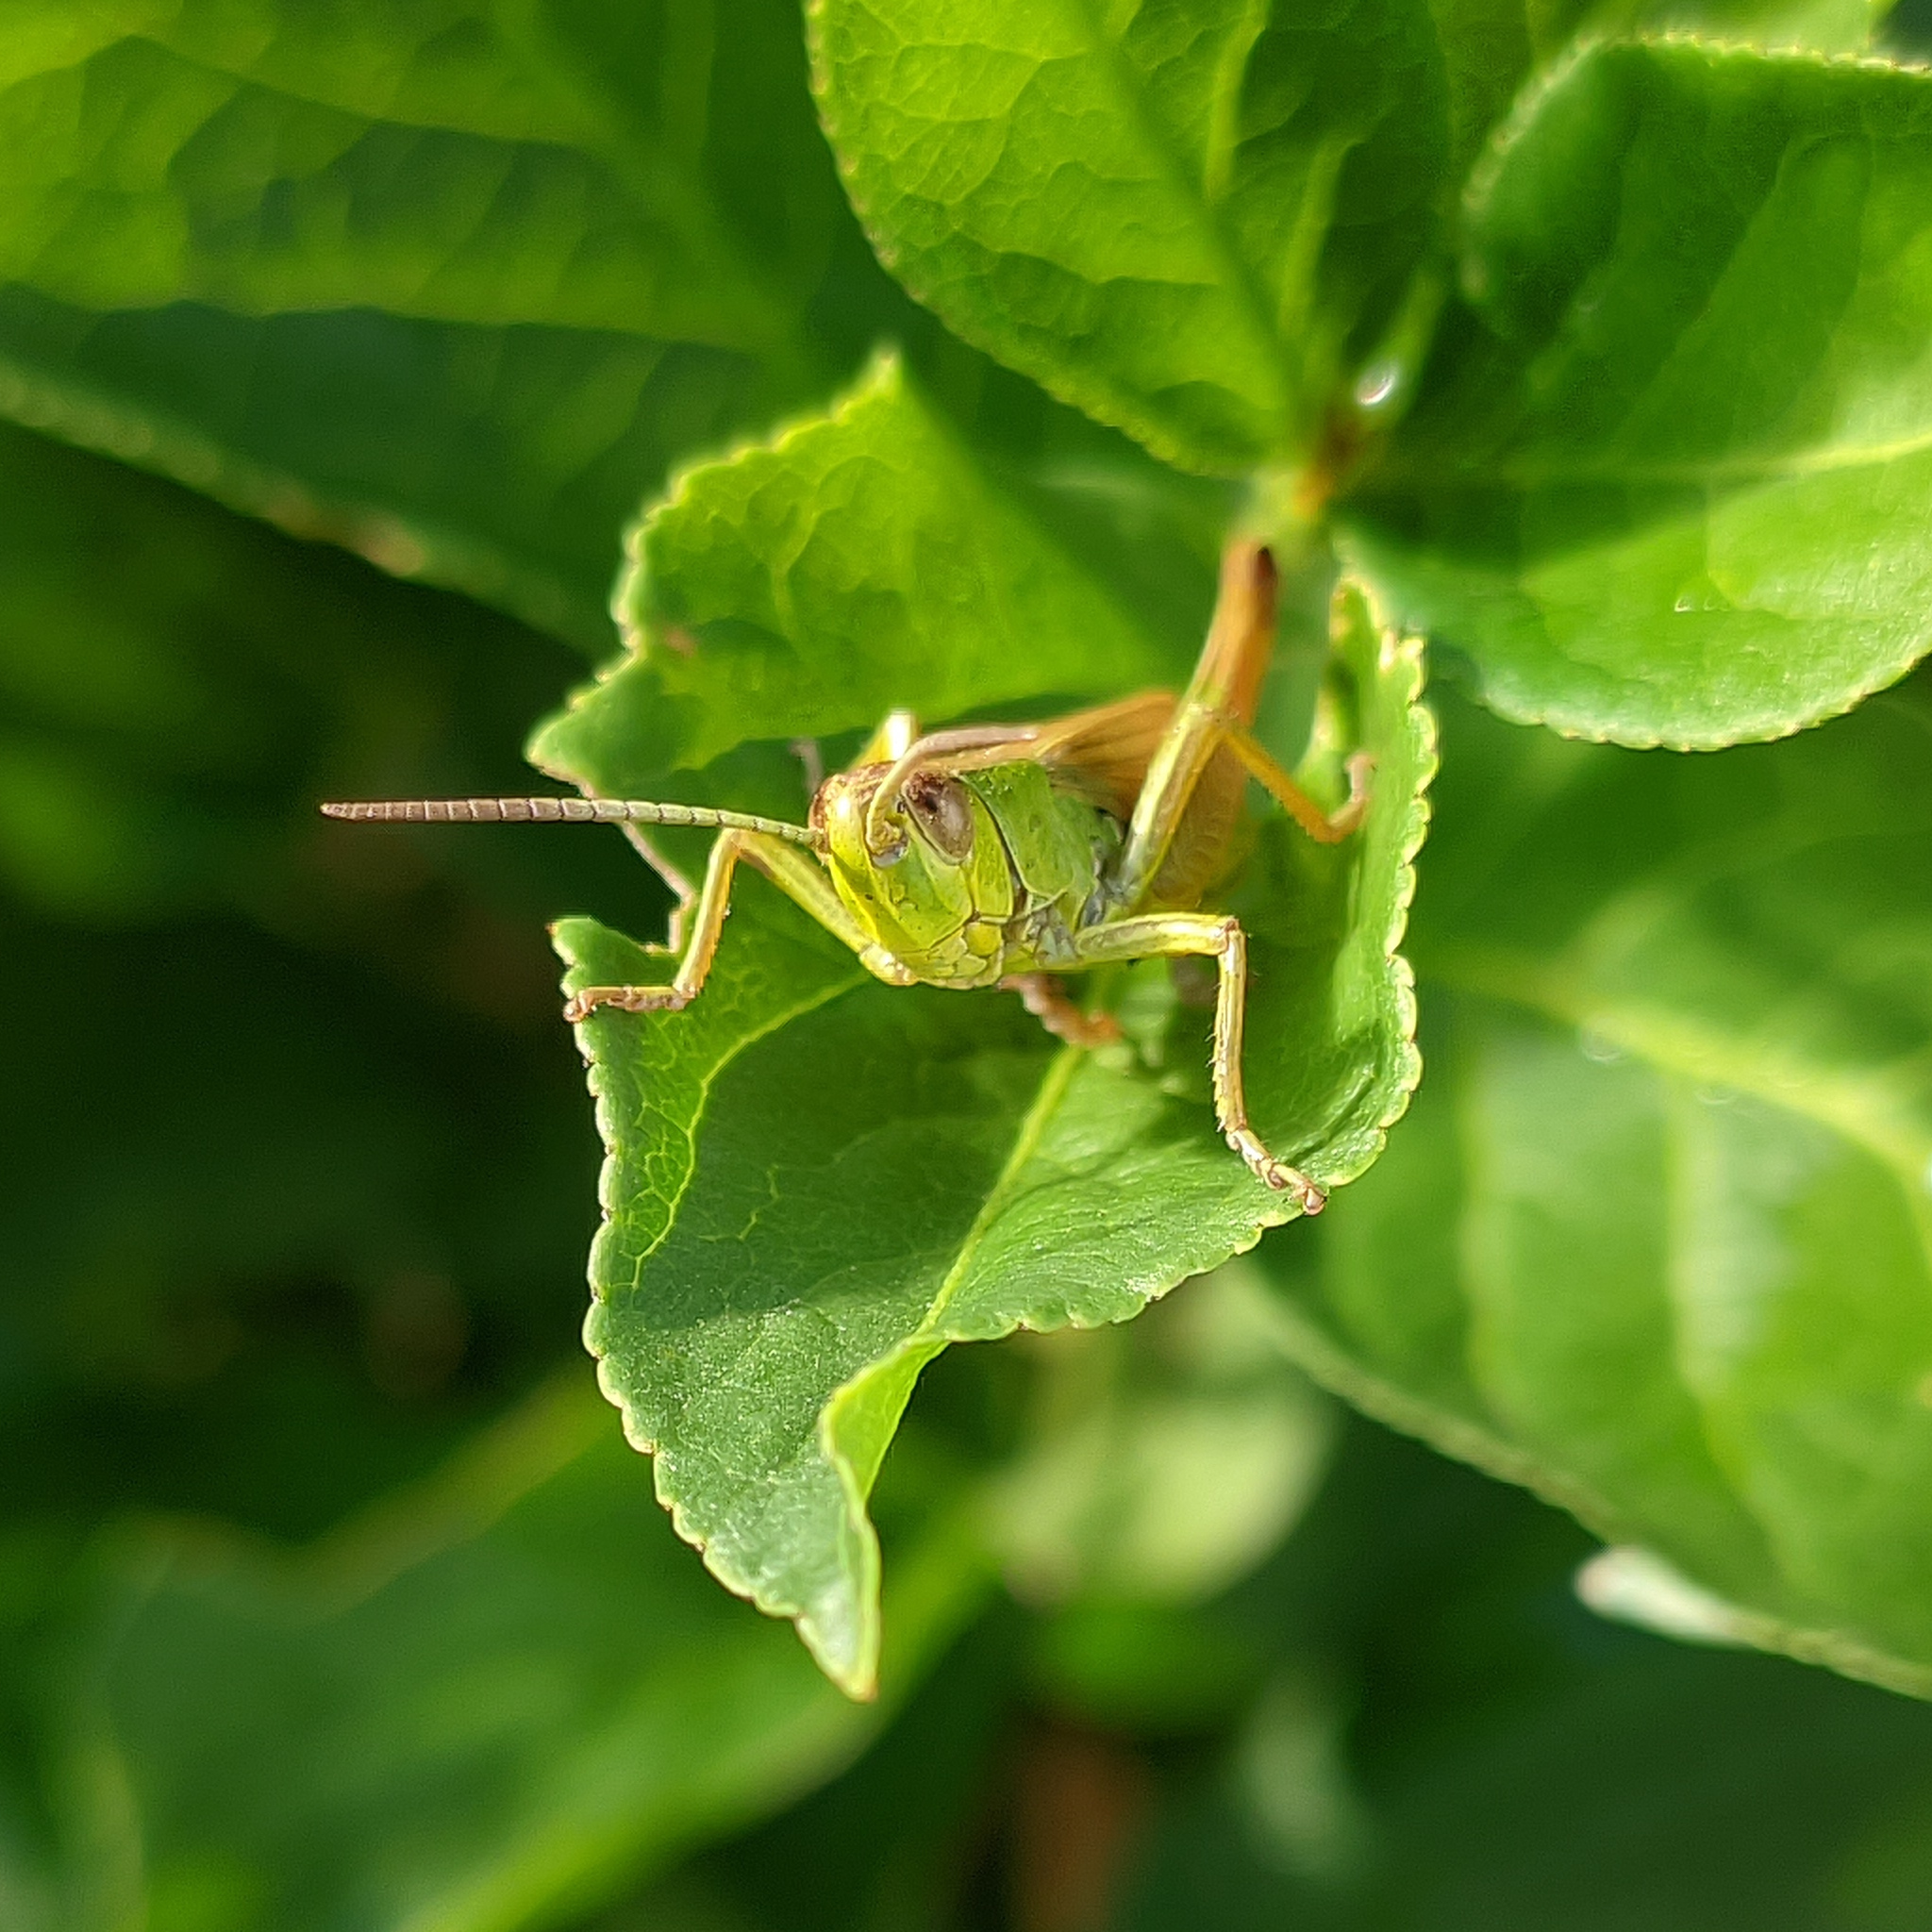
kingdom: Animalia
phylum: Arthropoda
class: Insecta
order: Orthoptera
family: Acrididae
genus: Pseudochorthippus
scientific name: Pseudochorthippus parallelus
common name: Meadow grasshopper
